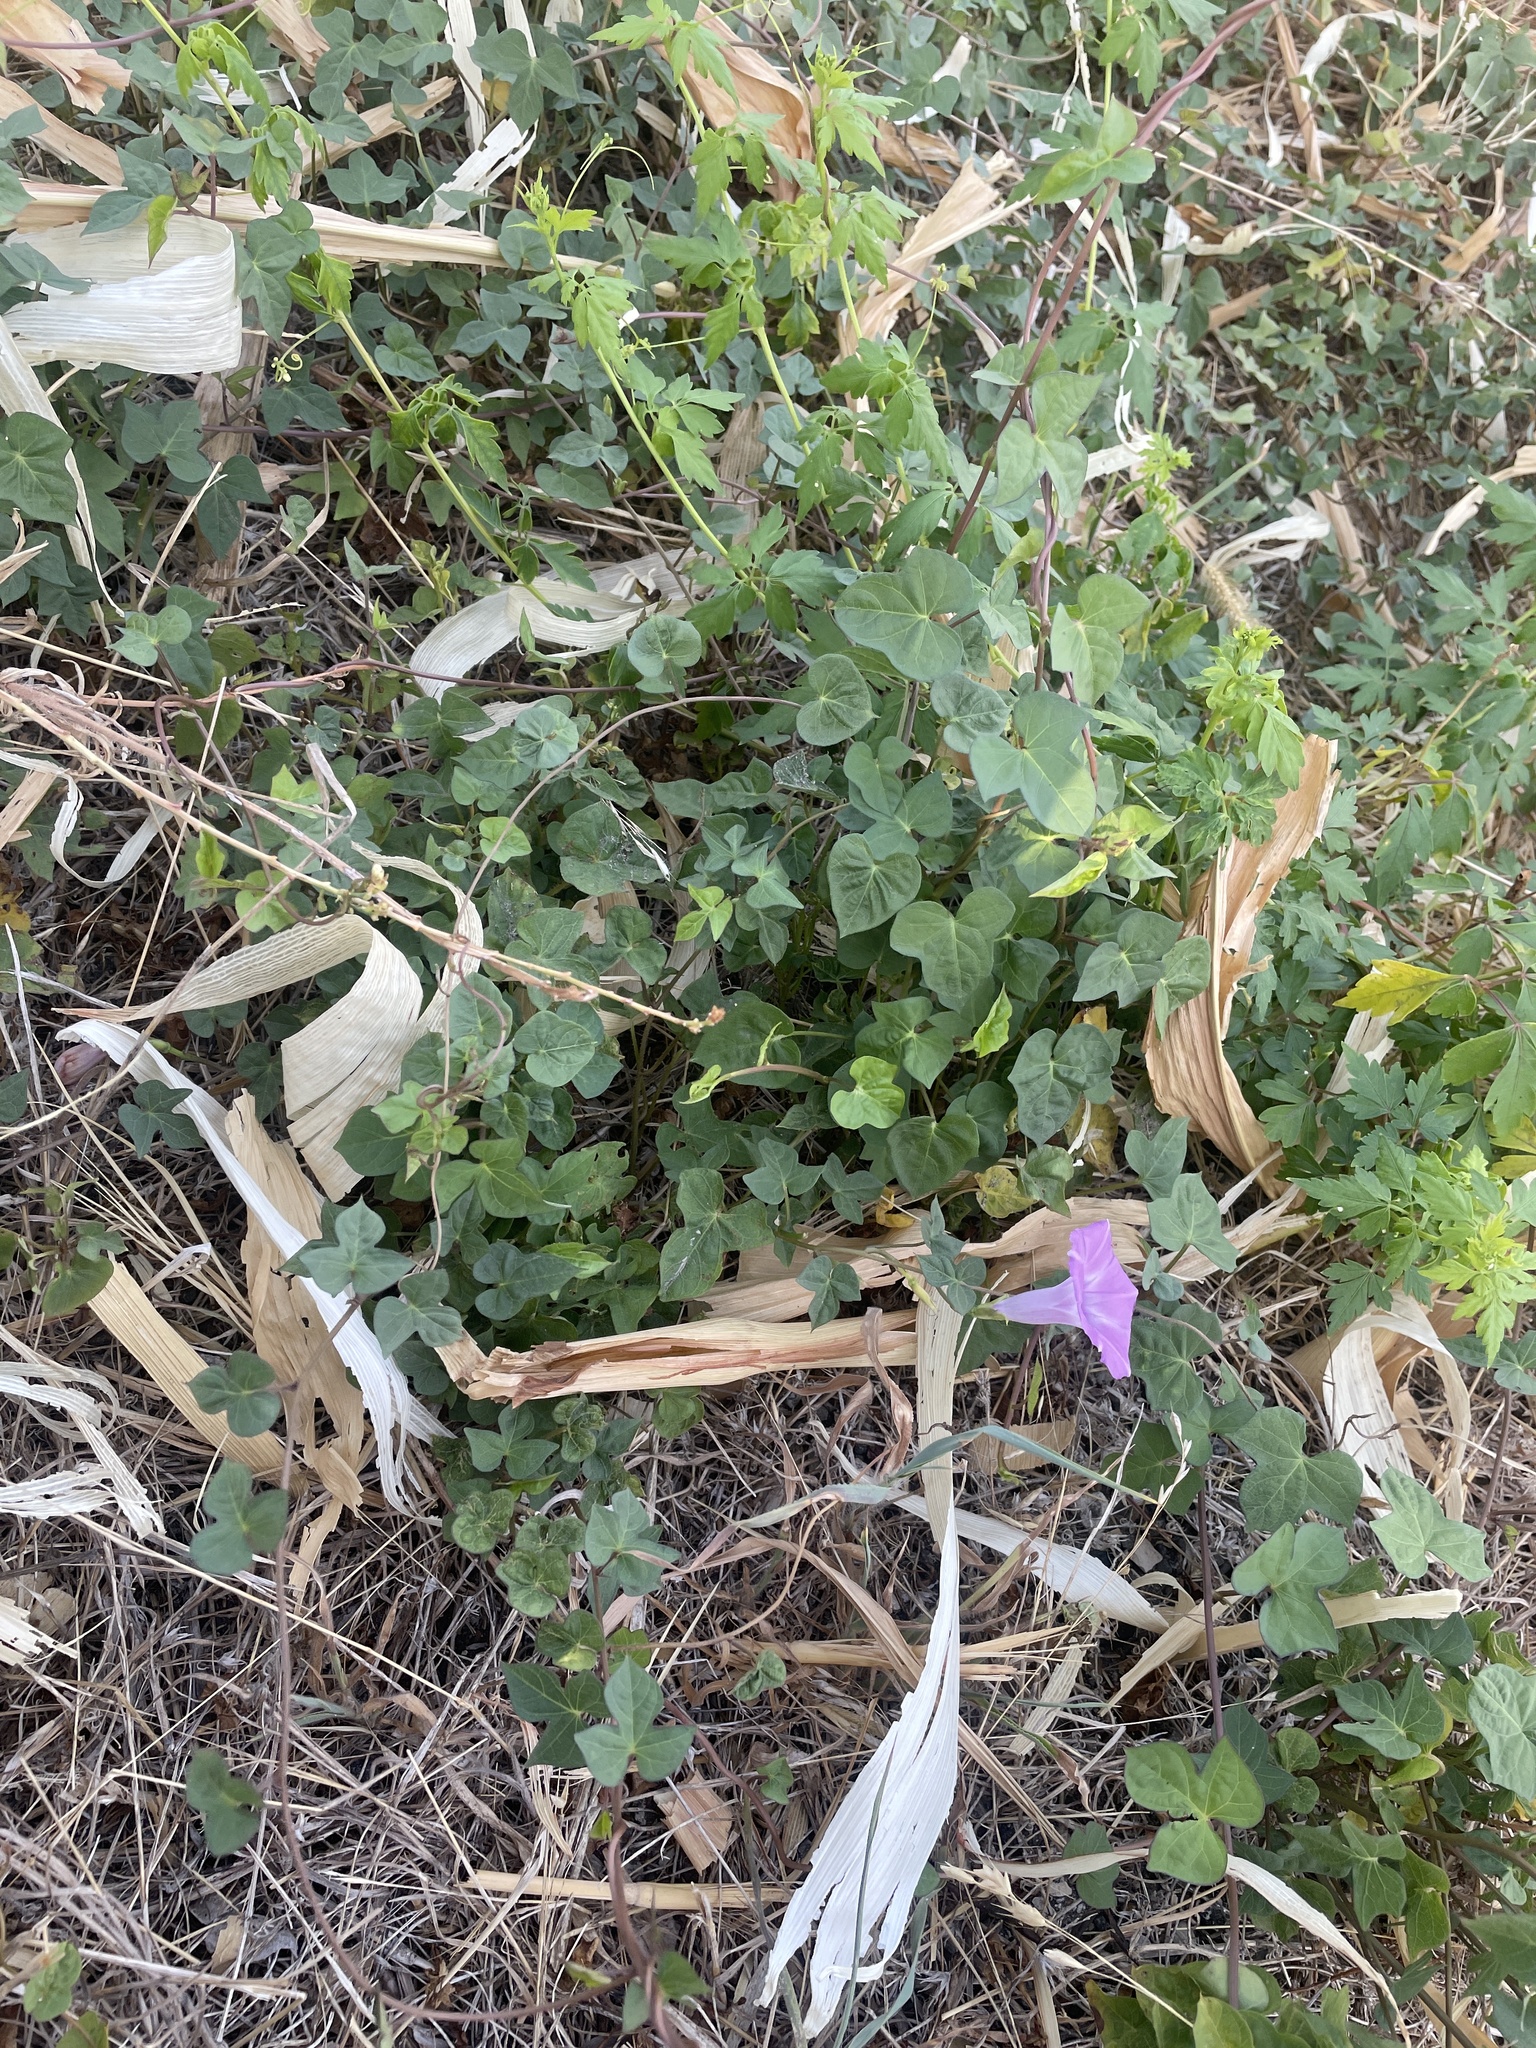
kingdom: Plantae
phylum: Tracheophyta
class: Magnoliopsida
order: Solanales
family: Convolvulaceae
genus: Ipomoea
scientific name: Ipomoea cordatotriloba
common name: Cotton morning glory
